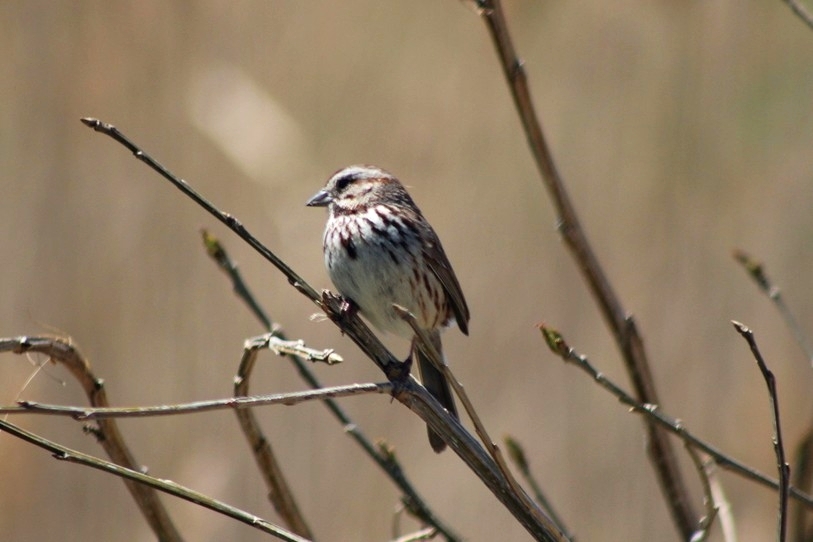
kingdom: Animalia
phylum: Chordata
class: Aves
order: Passeriformes
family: Passerellidae
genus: Melospiza
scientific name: Melospiza melodia
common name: Song sparrow
